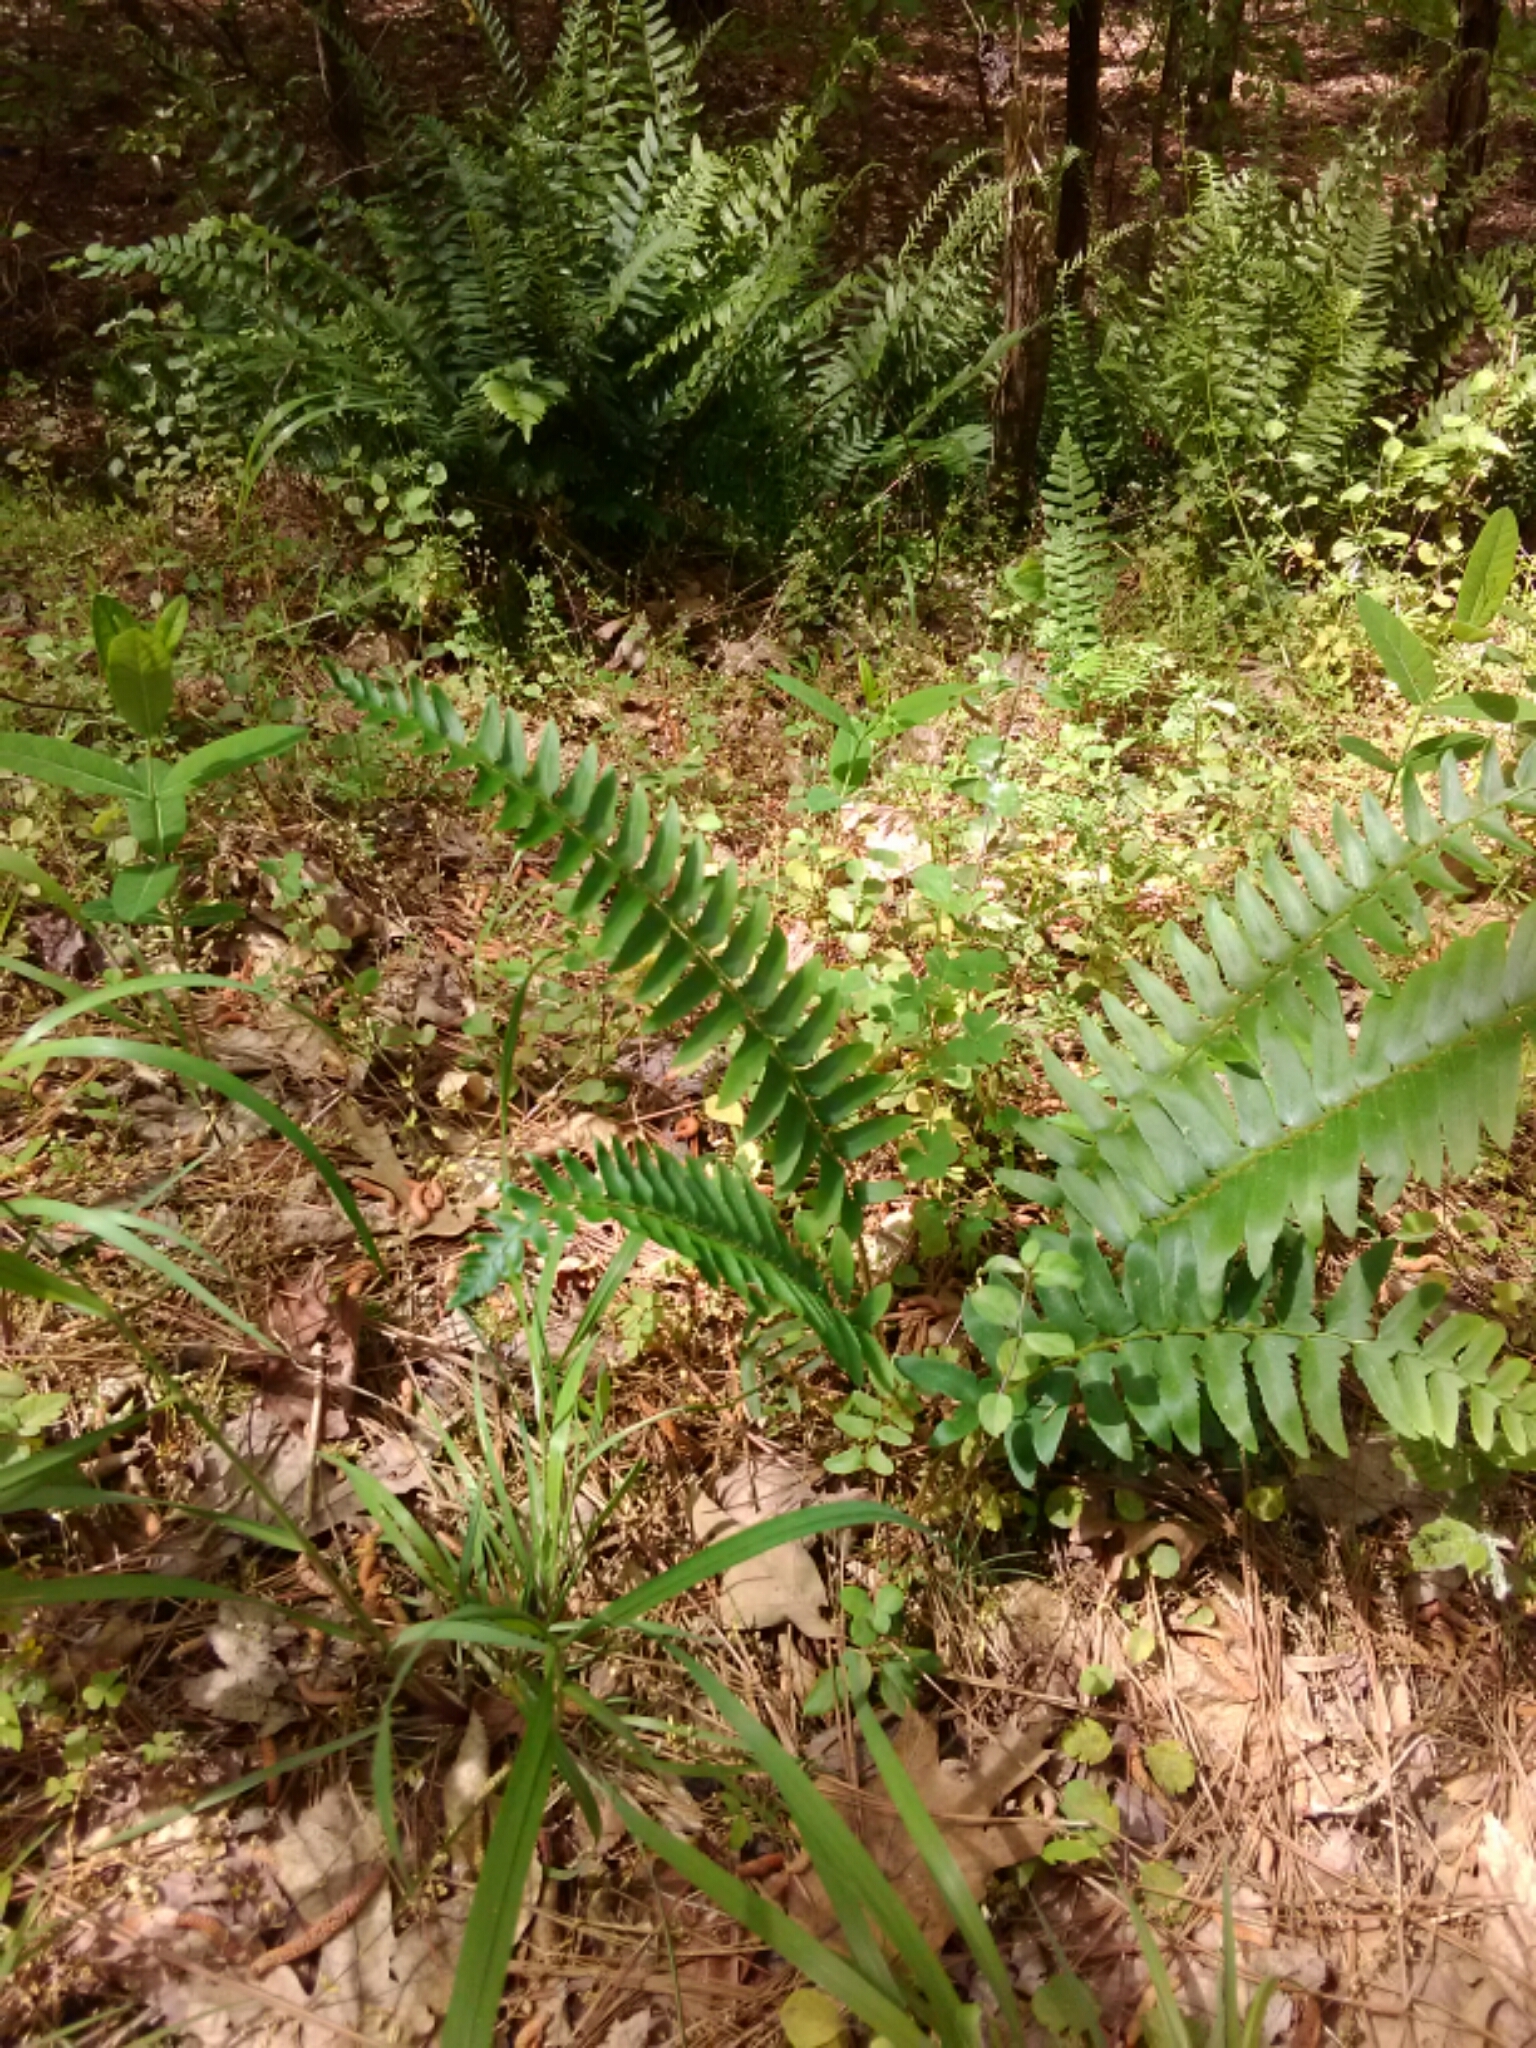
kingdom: Plantae
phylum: Tracheophyta
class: Polypodiopsida
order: Polypodiales
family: Dryopteridaceae
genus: Polystichum
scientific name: Polystichum acrostichoides
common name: Christmas fern
